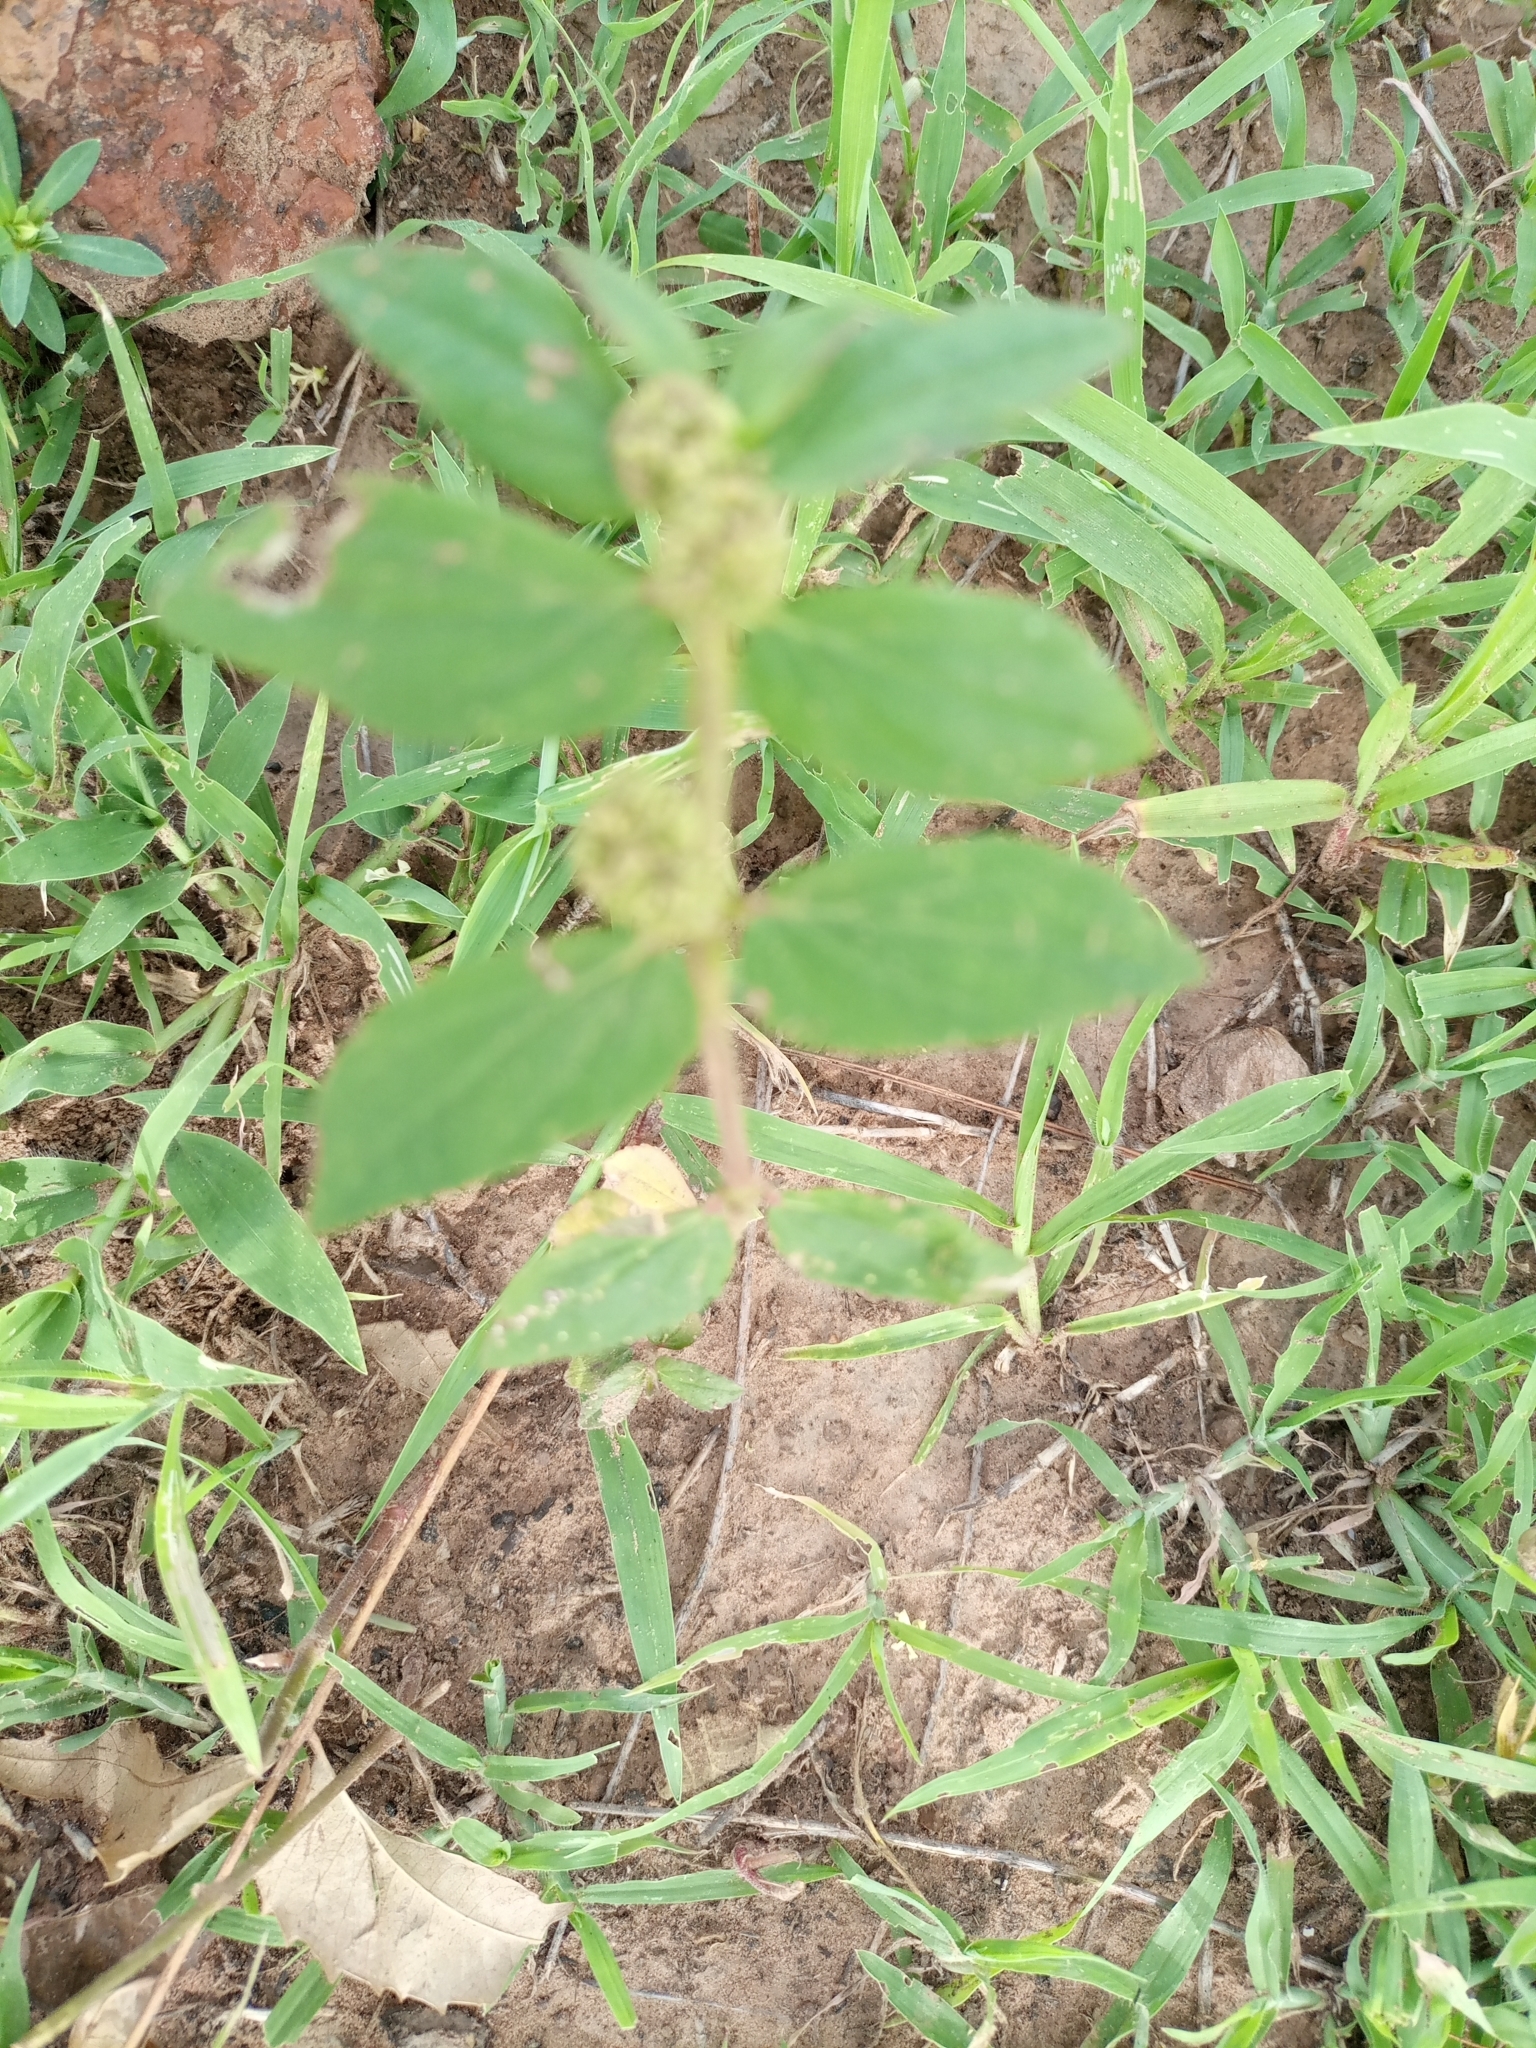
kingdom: Plantae
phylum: Tracheophyta
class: Magnoliopsida
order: Malpighiales
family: Euphorbiaceae
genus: Euphorbia
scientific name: Euphorbia hirta
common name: Pillpod sandmat
